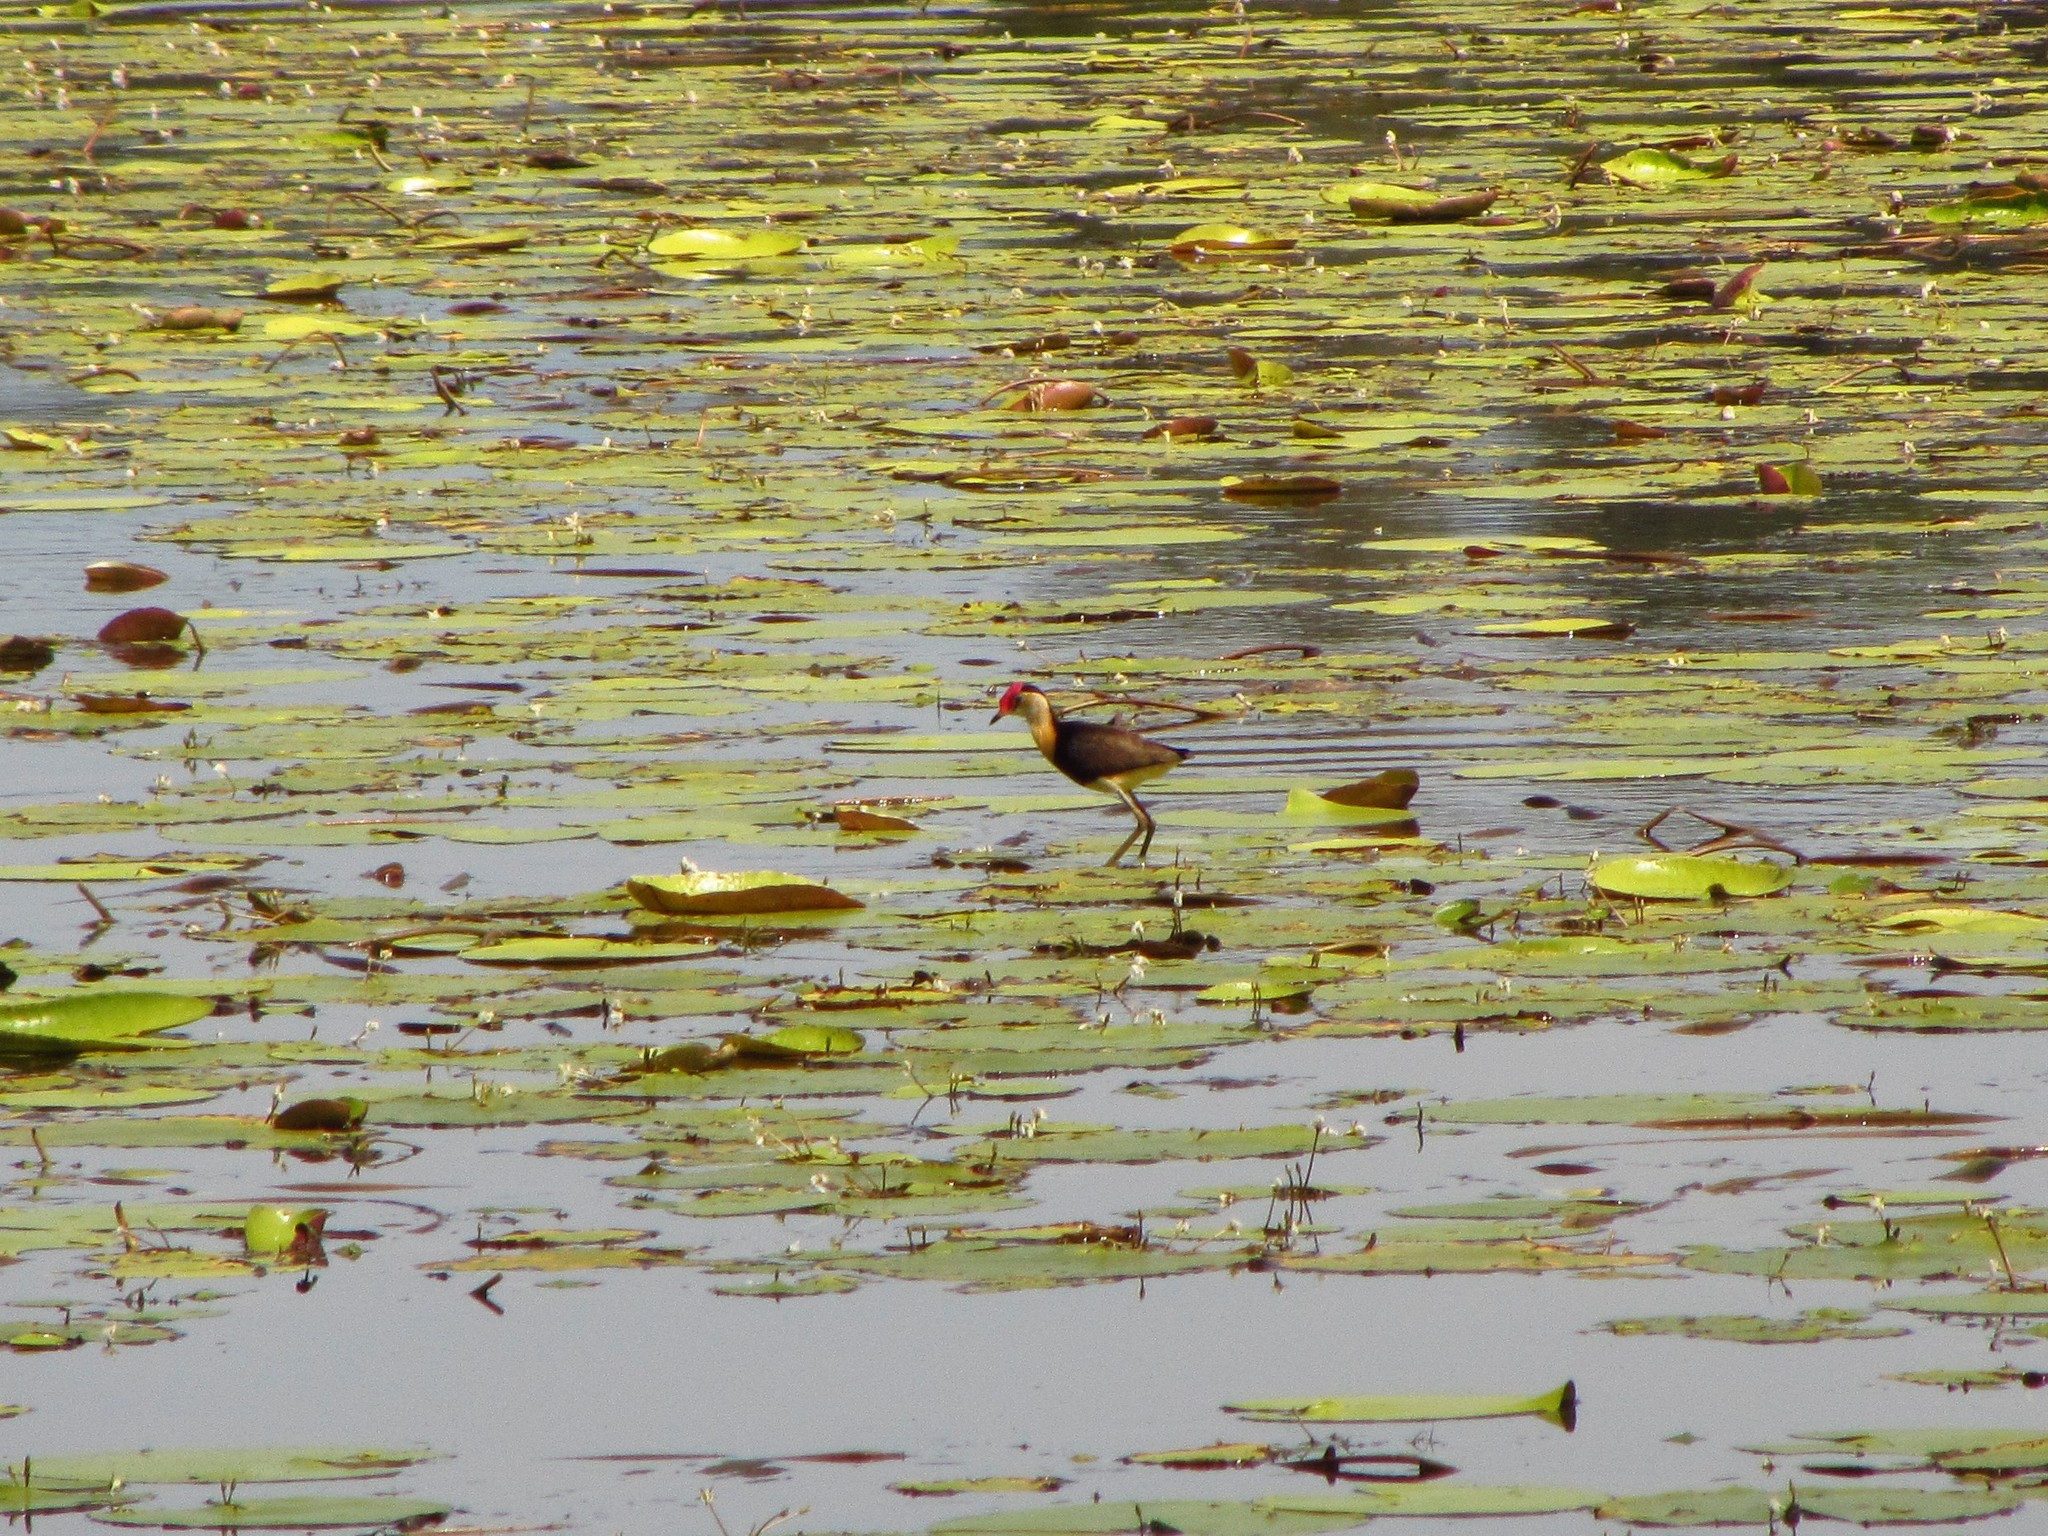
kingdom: Animalia
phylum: Chordata
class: Aves
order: Charadriiformes
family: Jacanidae
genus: Irediparra
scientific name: Irediparra gallinacea
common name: Comb-crested jacana
